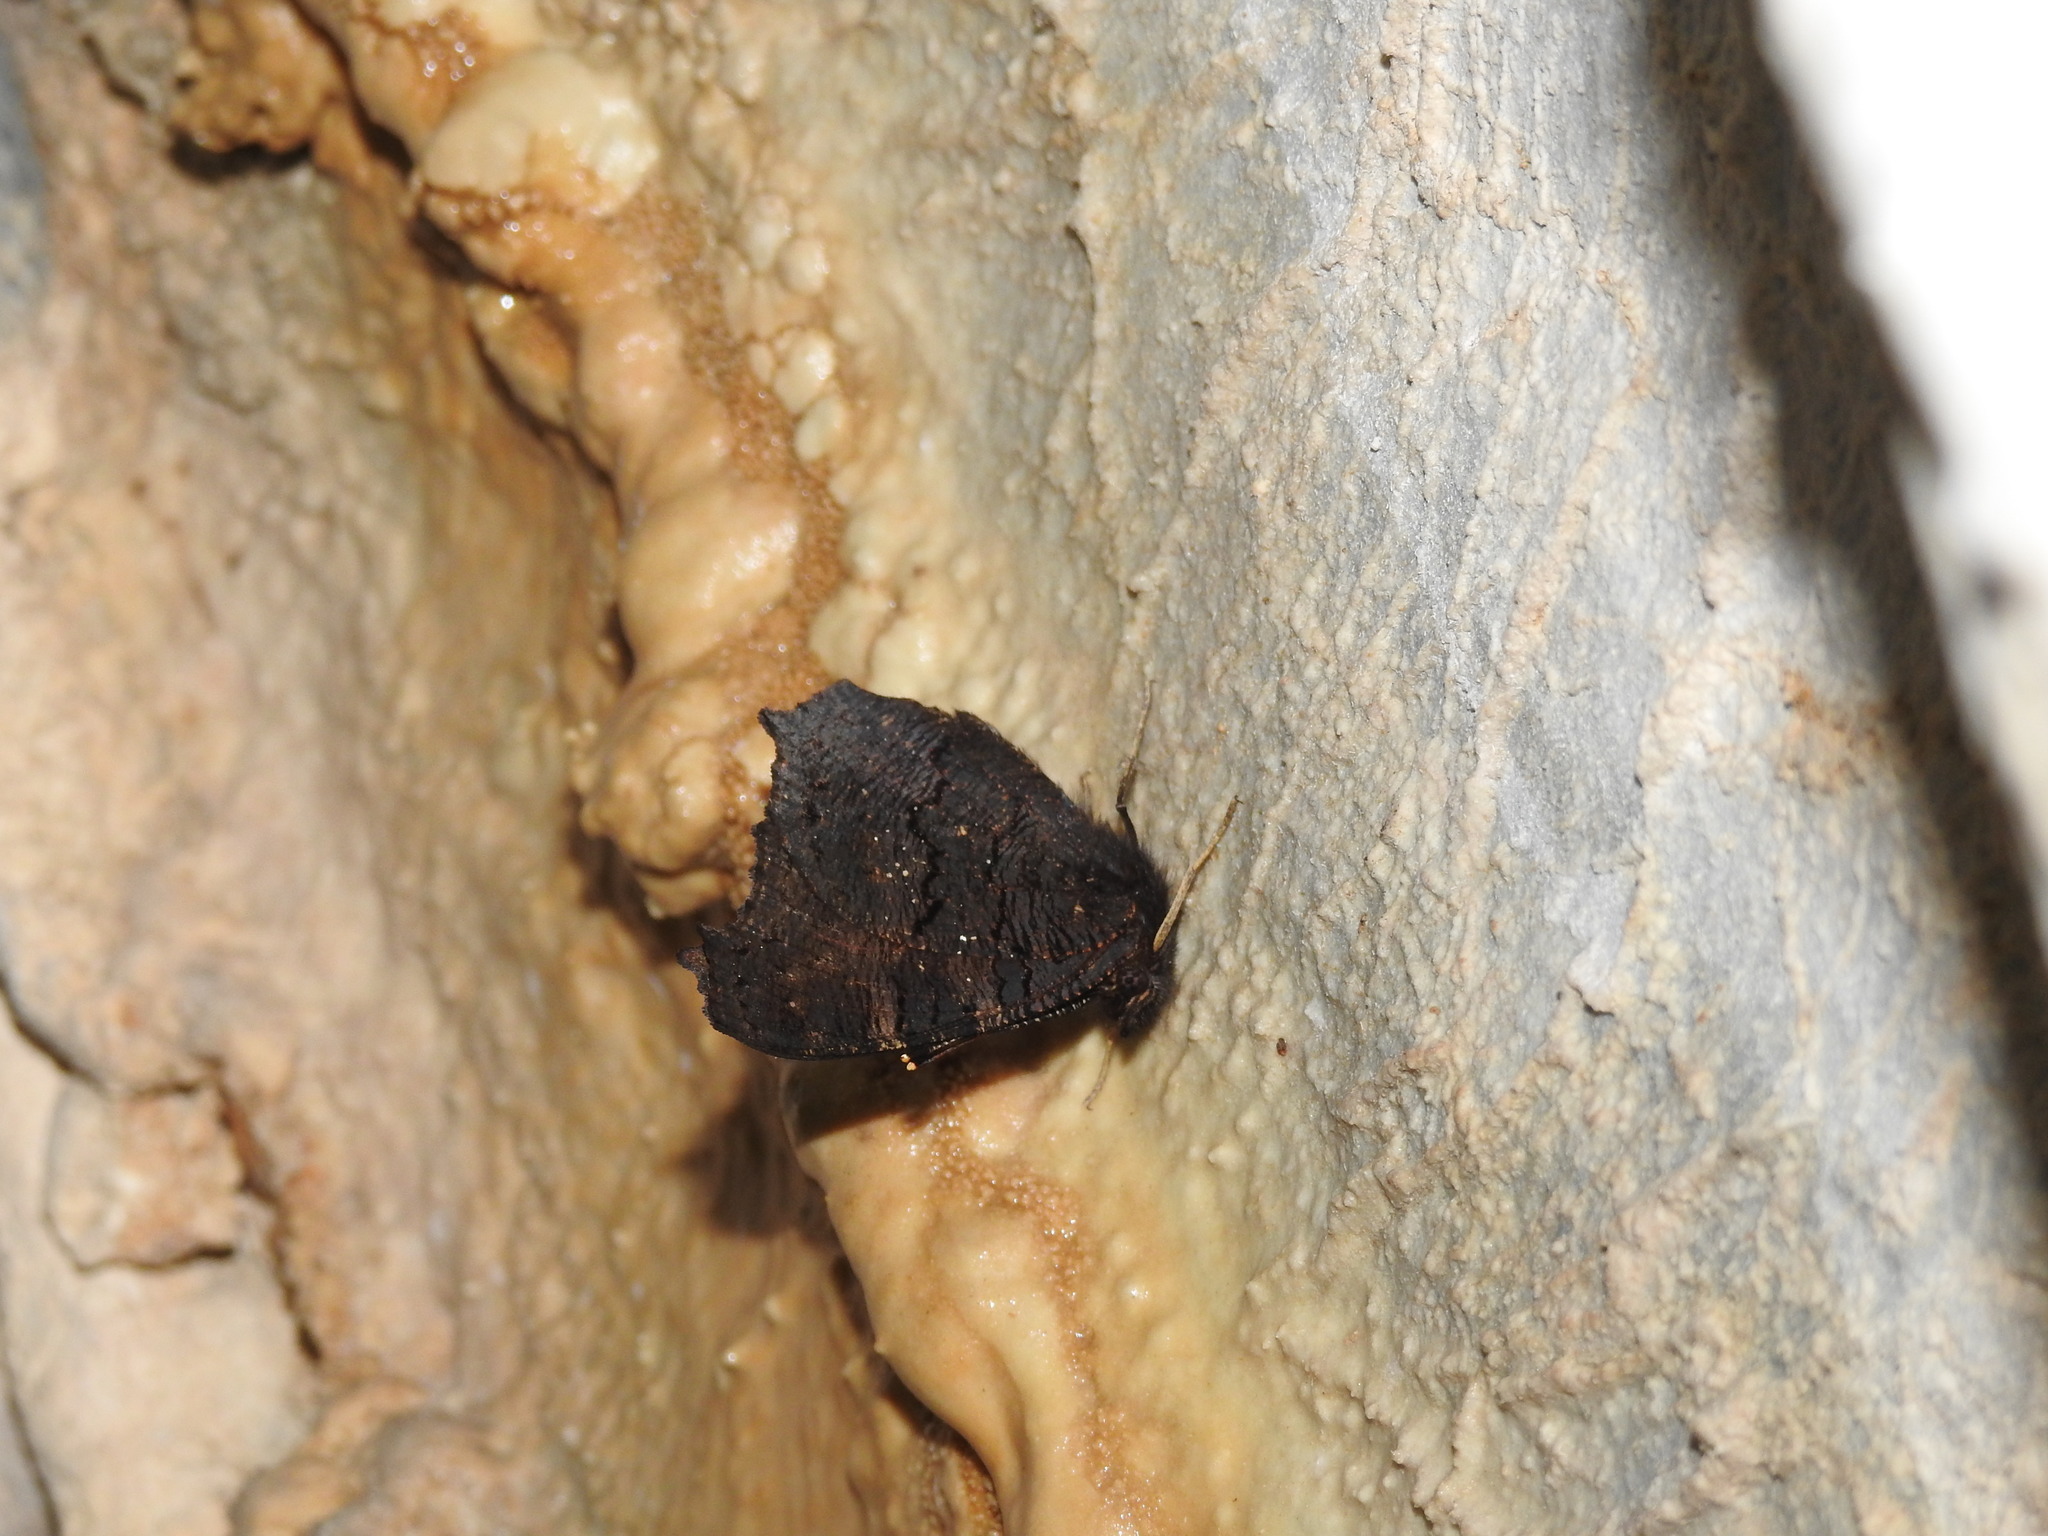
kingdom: Animalia
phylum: Arthropoda
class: Insecta
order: Lepidoptera
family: Nymphalidae
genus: Aglais
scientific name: Aglais io
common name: Peacock
